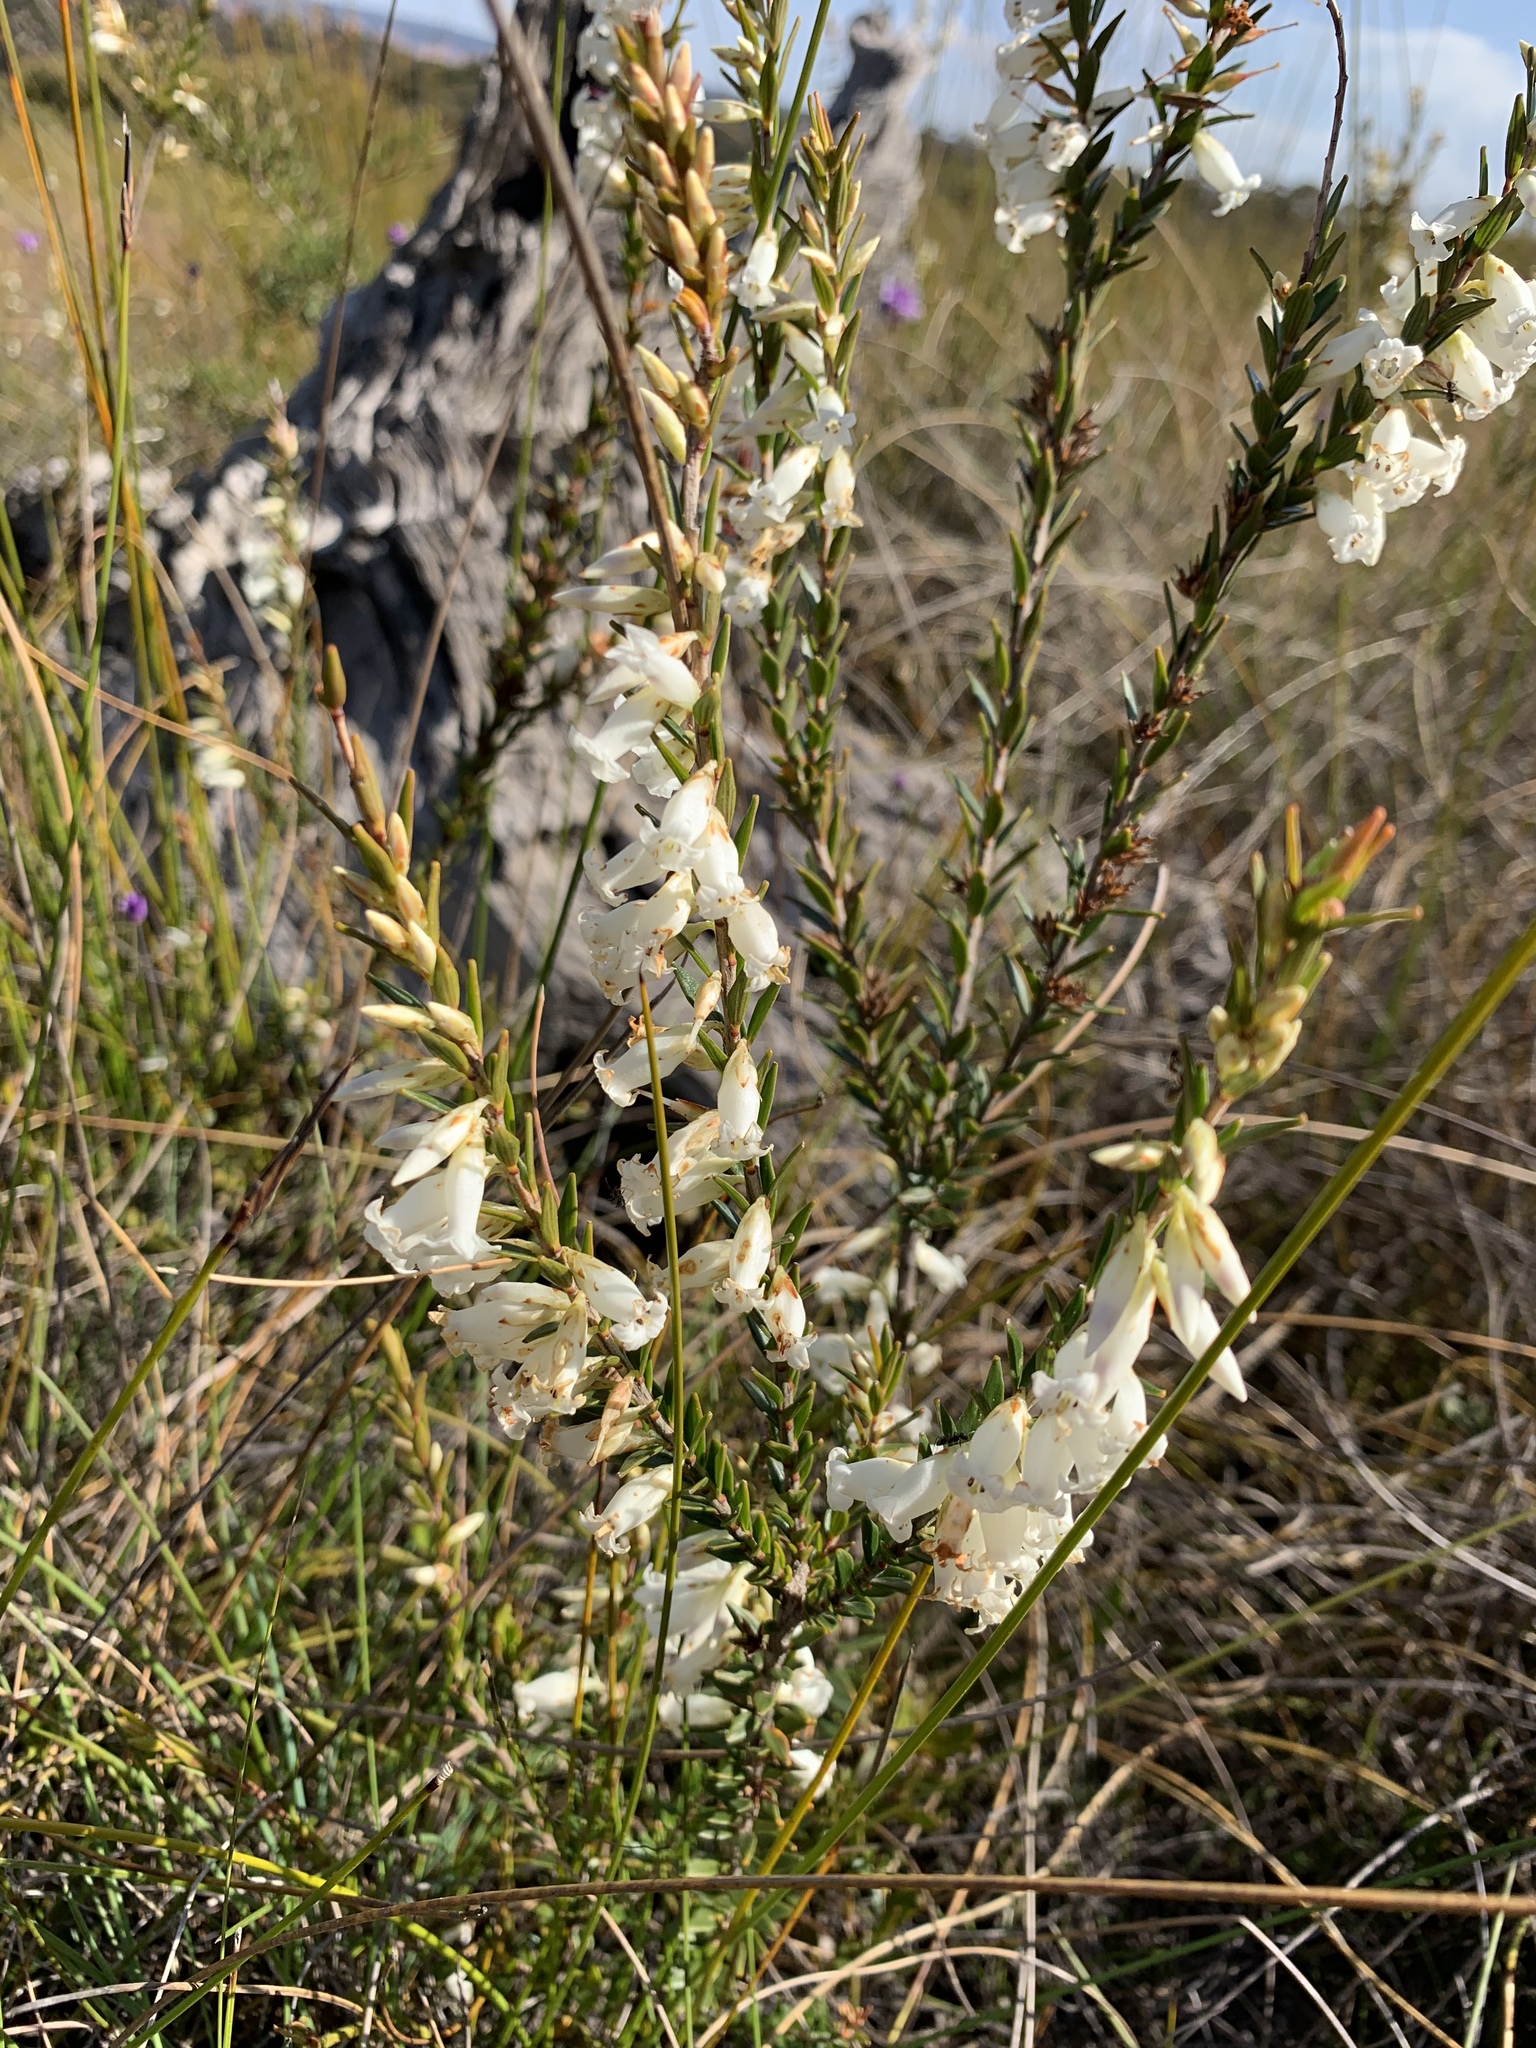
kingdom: Plantae
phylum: Tracheophyta
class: Magnoliopsida
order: Ericales
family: Ericaceae
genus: Epacris
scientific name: Epacris obtusifolia
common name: Blunt-leaf australian-heath
